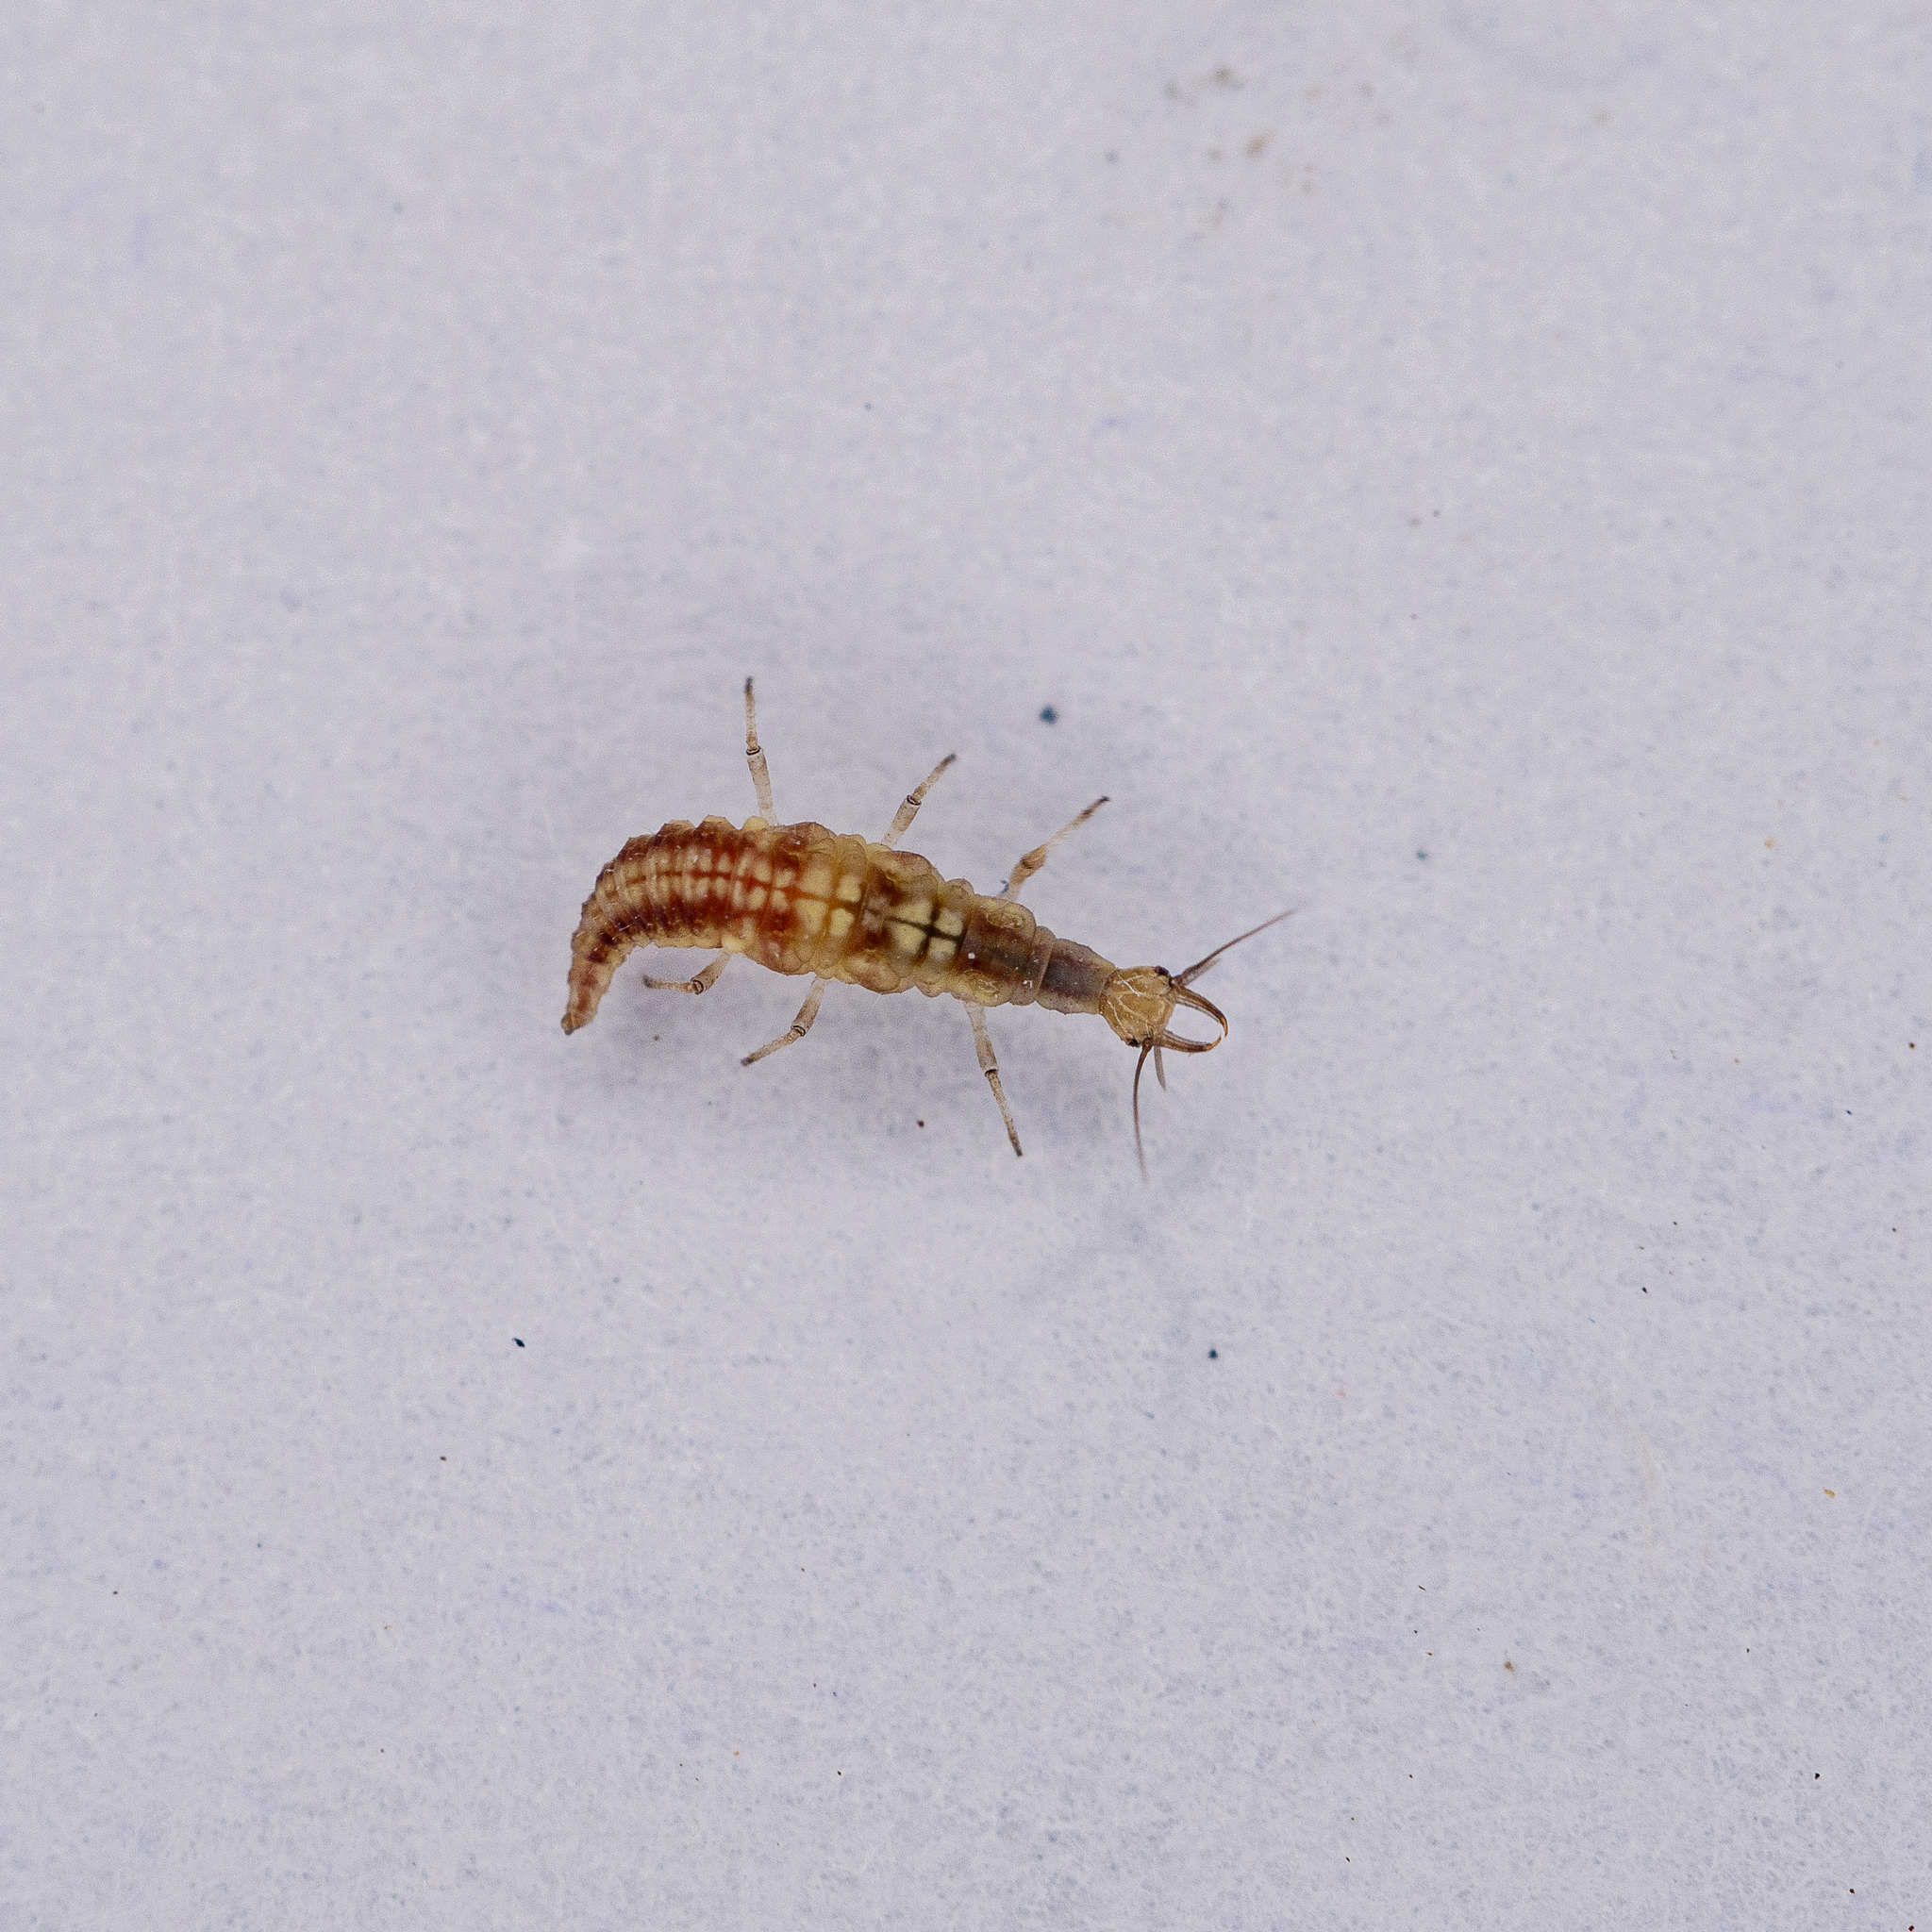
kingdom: Animalia
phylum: Arthropoda
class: Insecta
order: Neuroptera
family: Hemerobiidae
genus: Micromus
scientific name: Micromus tasmaniae
